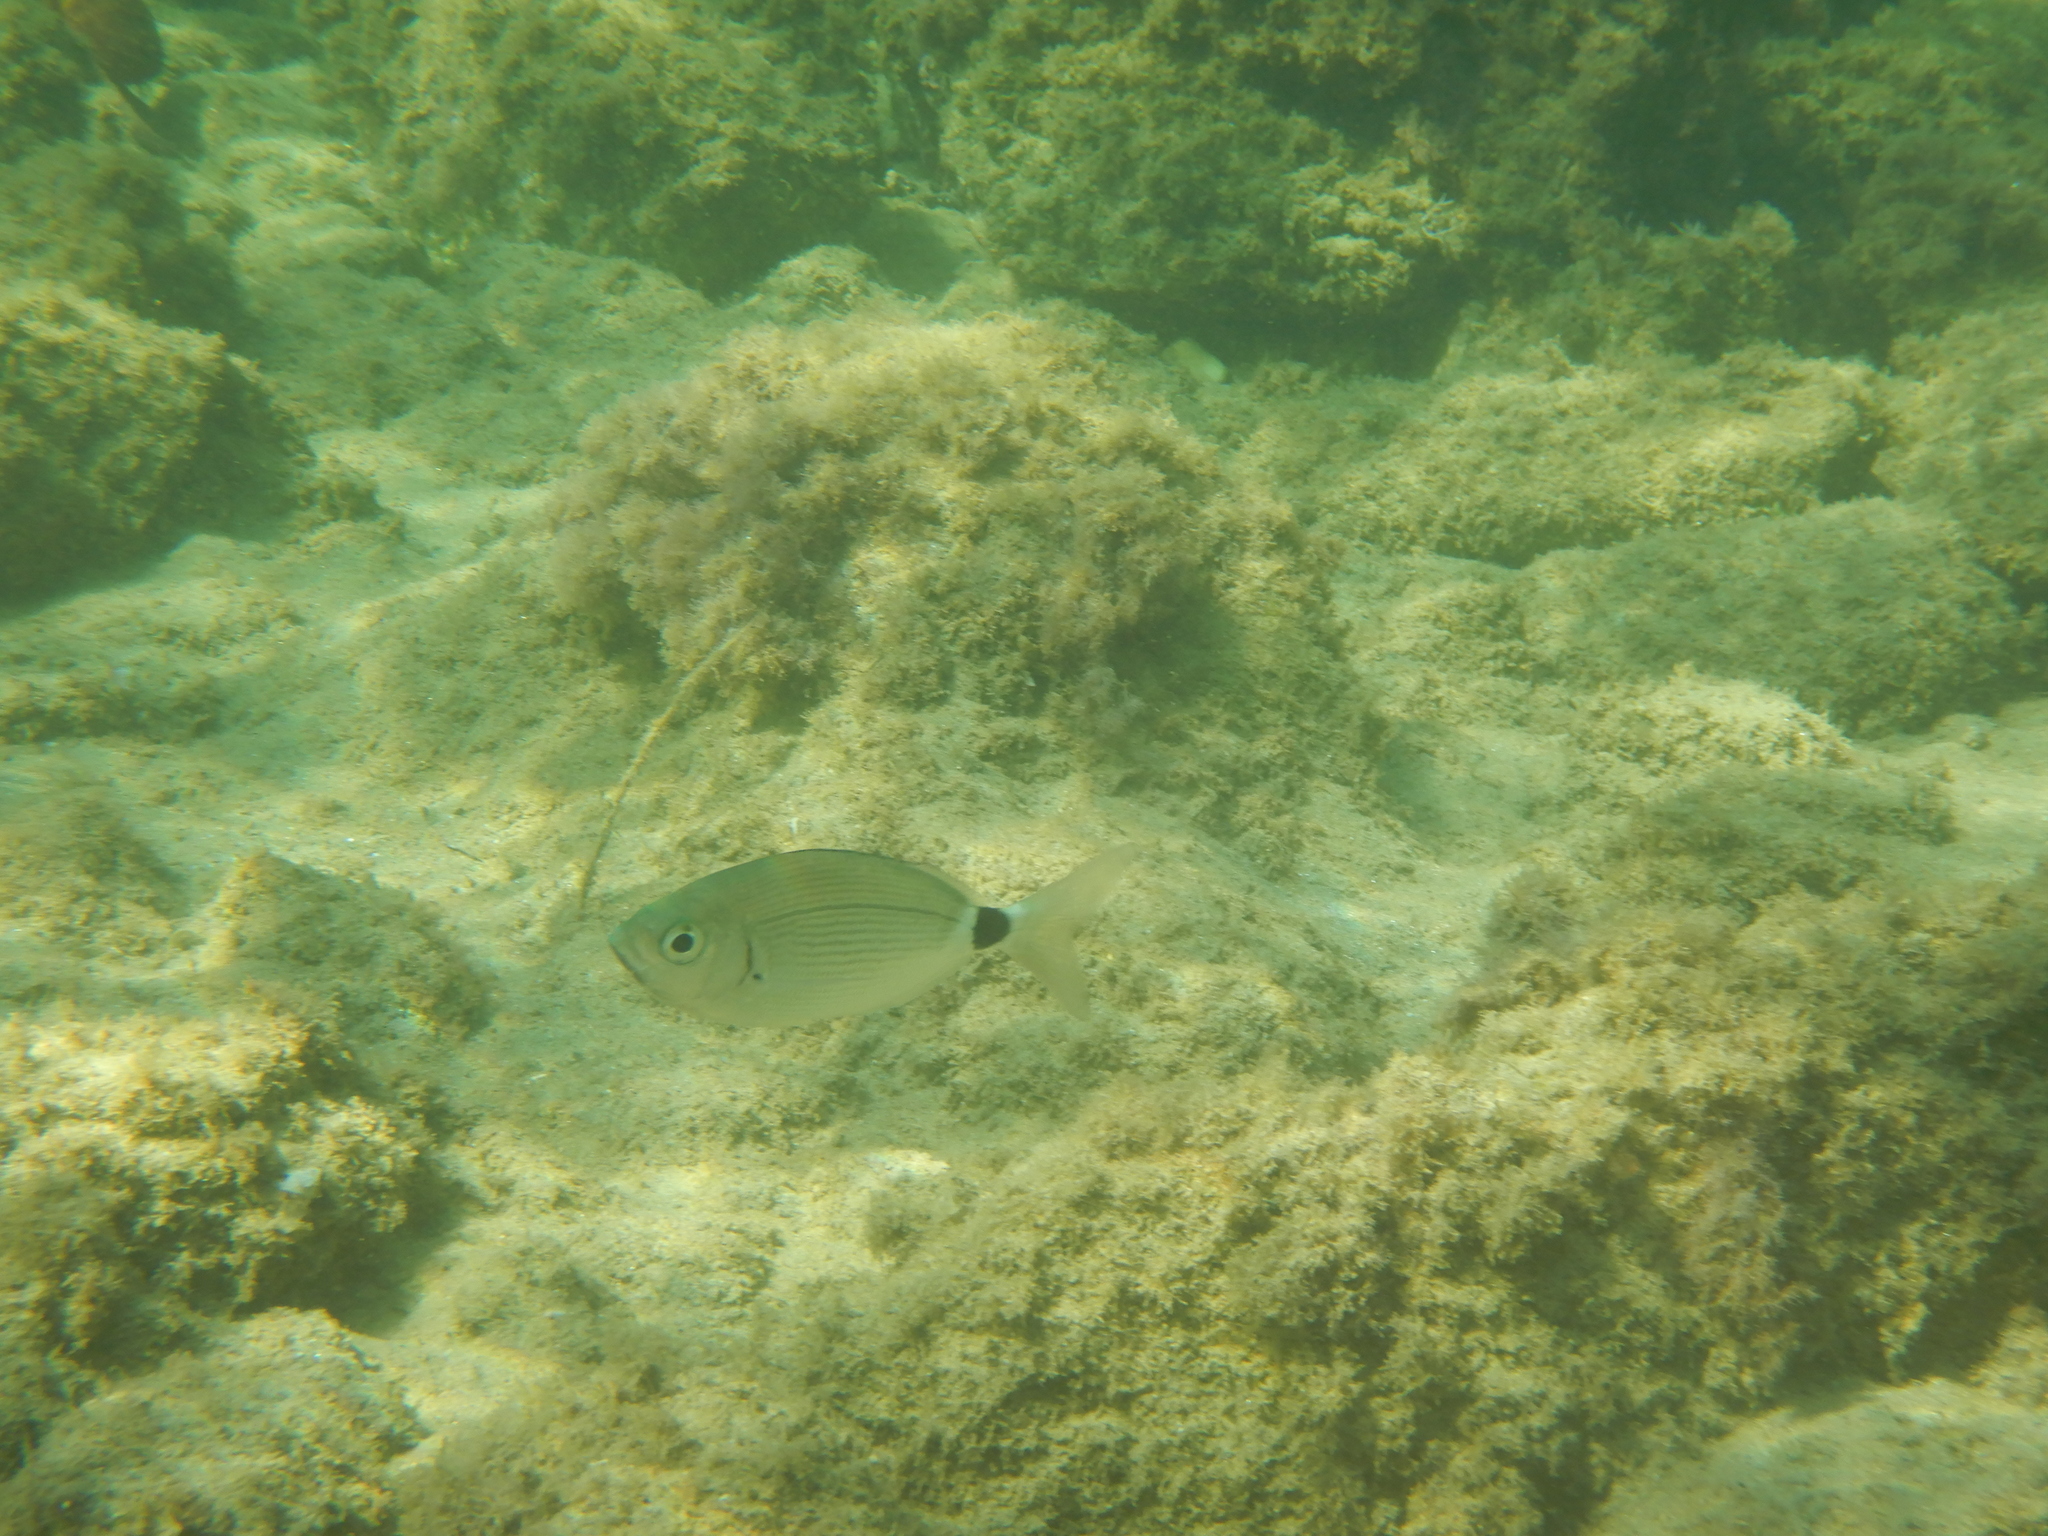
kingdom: Animalia
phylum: Chordata
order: Perciformes
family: Sparidae
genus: Oblada
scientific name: Oblada melanura
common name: Saddled seabream
